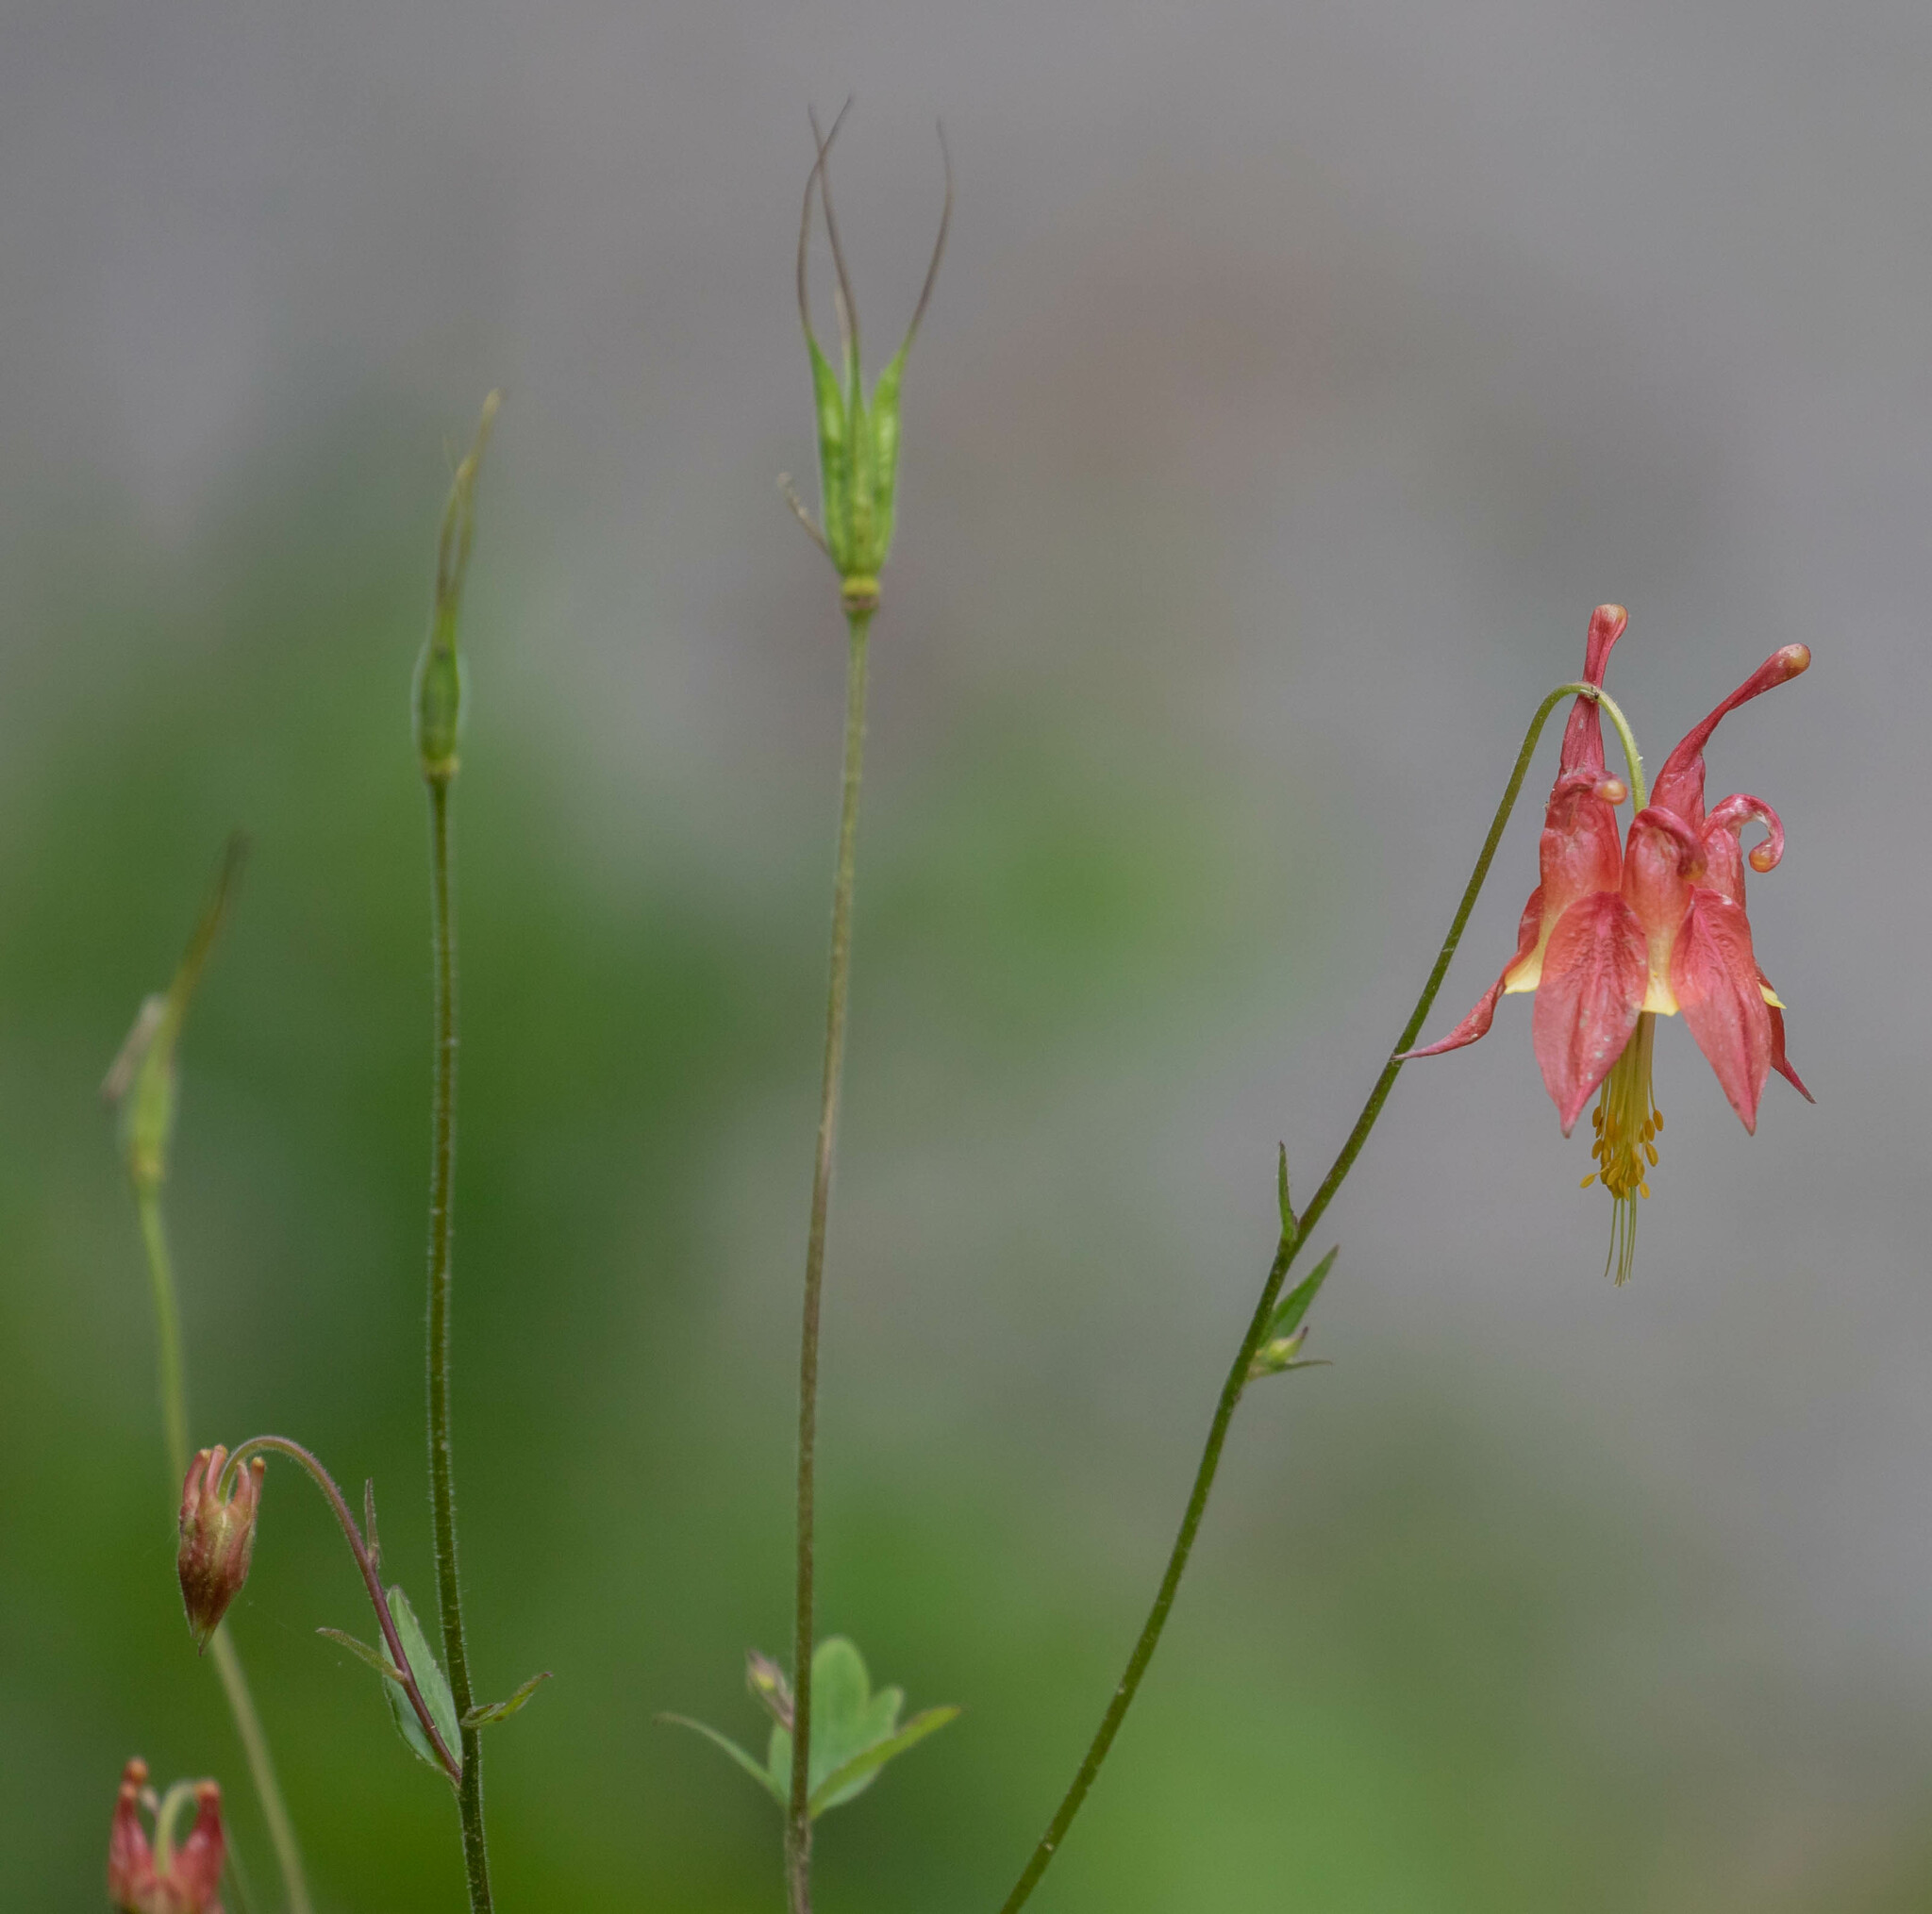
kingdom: Plantae
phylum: Tracheophyta
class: Magnoliopsida
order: Ranunculales
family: Ranunculaceae
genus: Aquilegia
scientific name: Aquilegia canadensis
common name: American columbine
